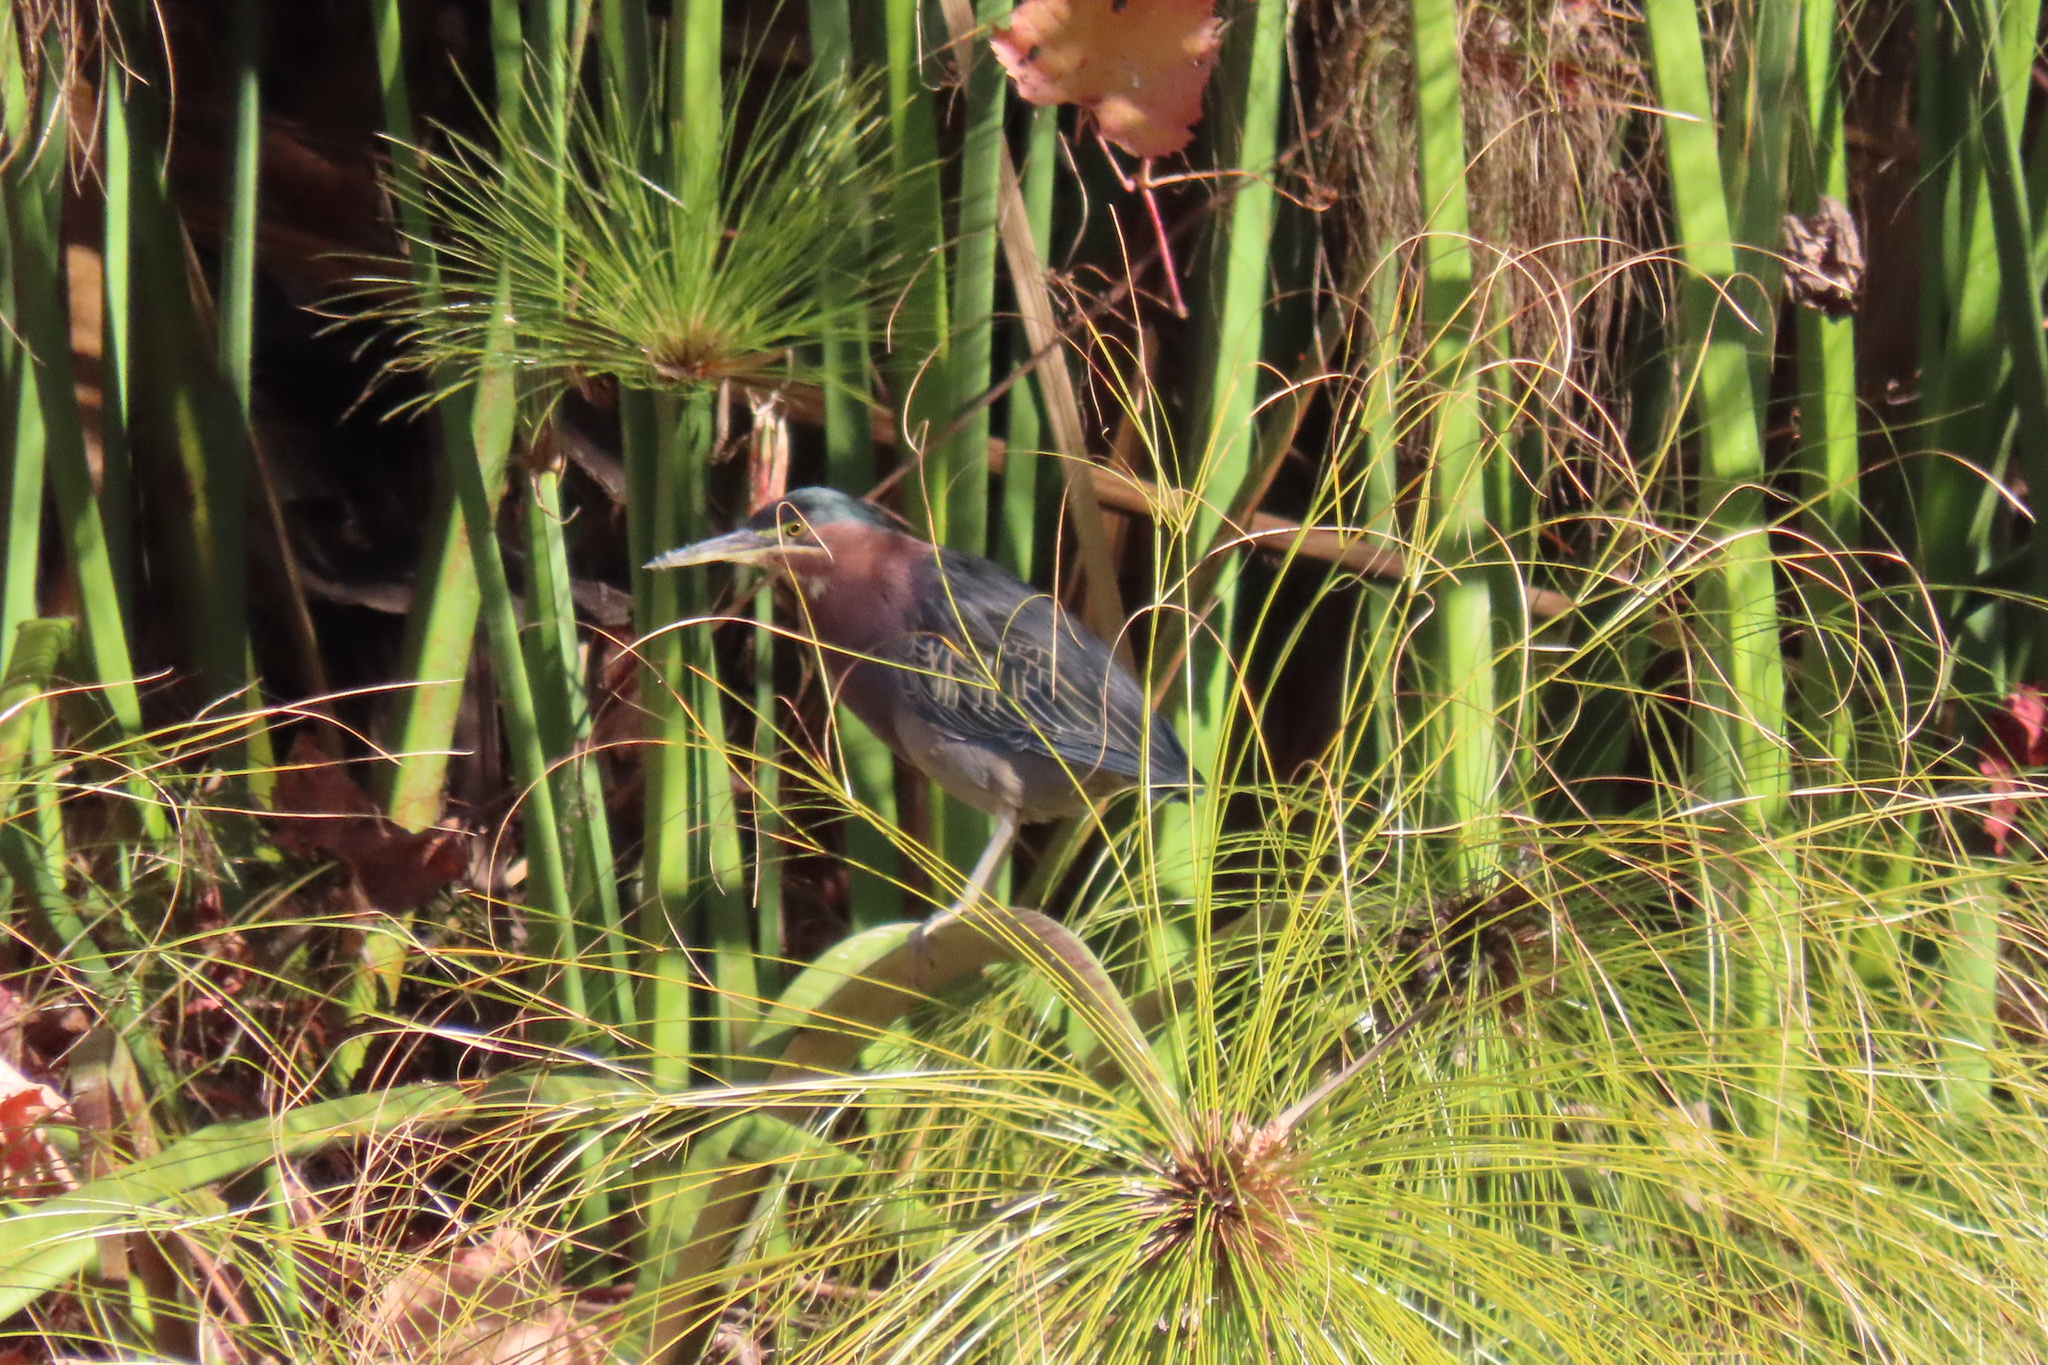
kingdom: Animalia
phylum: Chordata
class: Aves
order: Pelecaniformes
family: Ardeidae
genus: Butorides
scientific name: Butorides virescens
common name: Green heron
